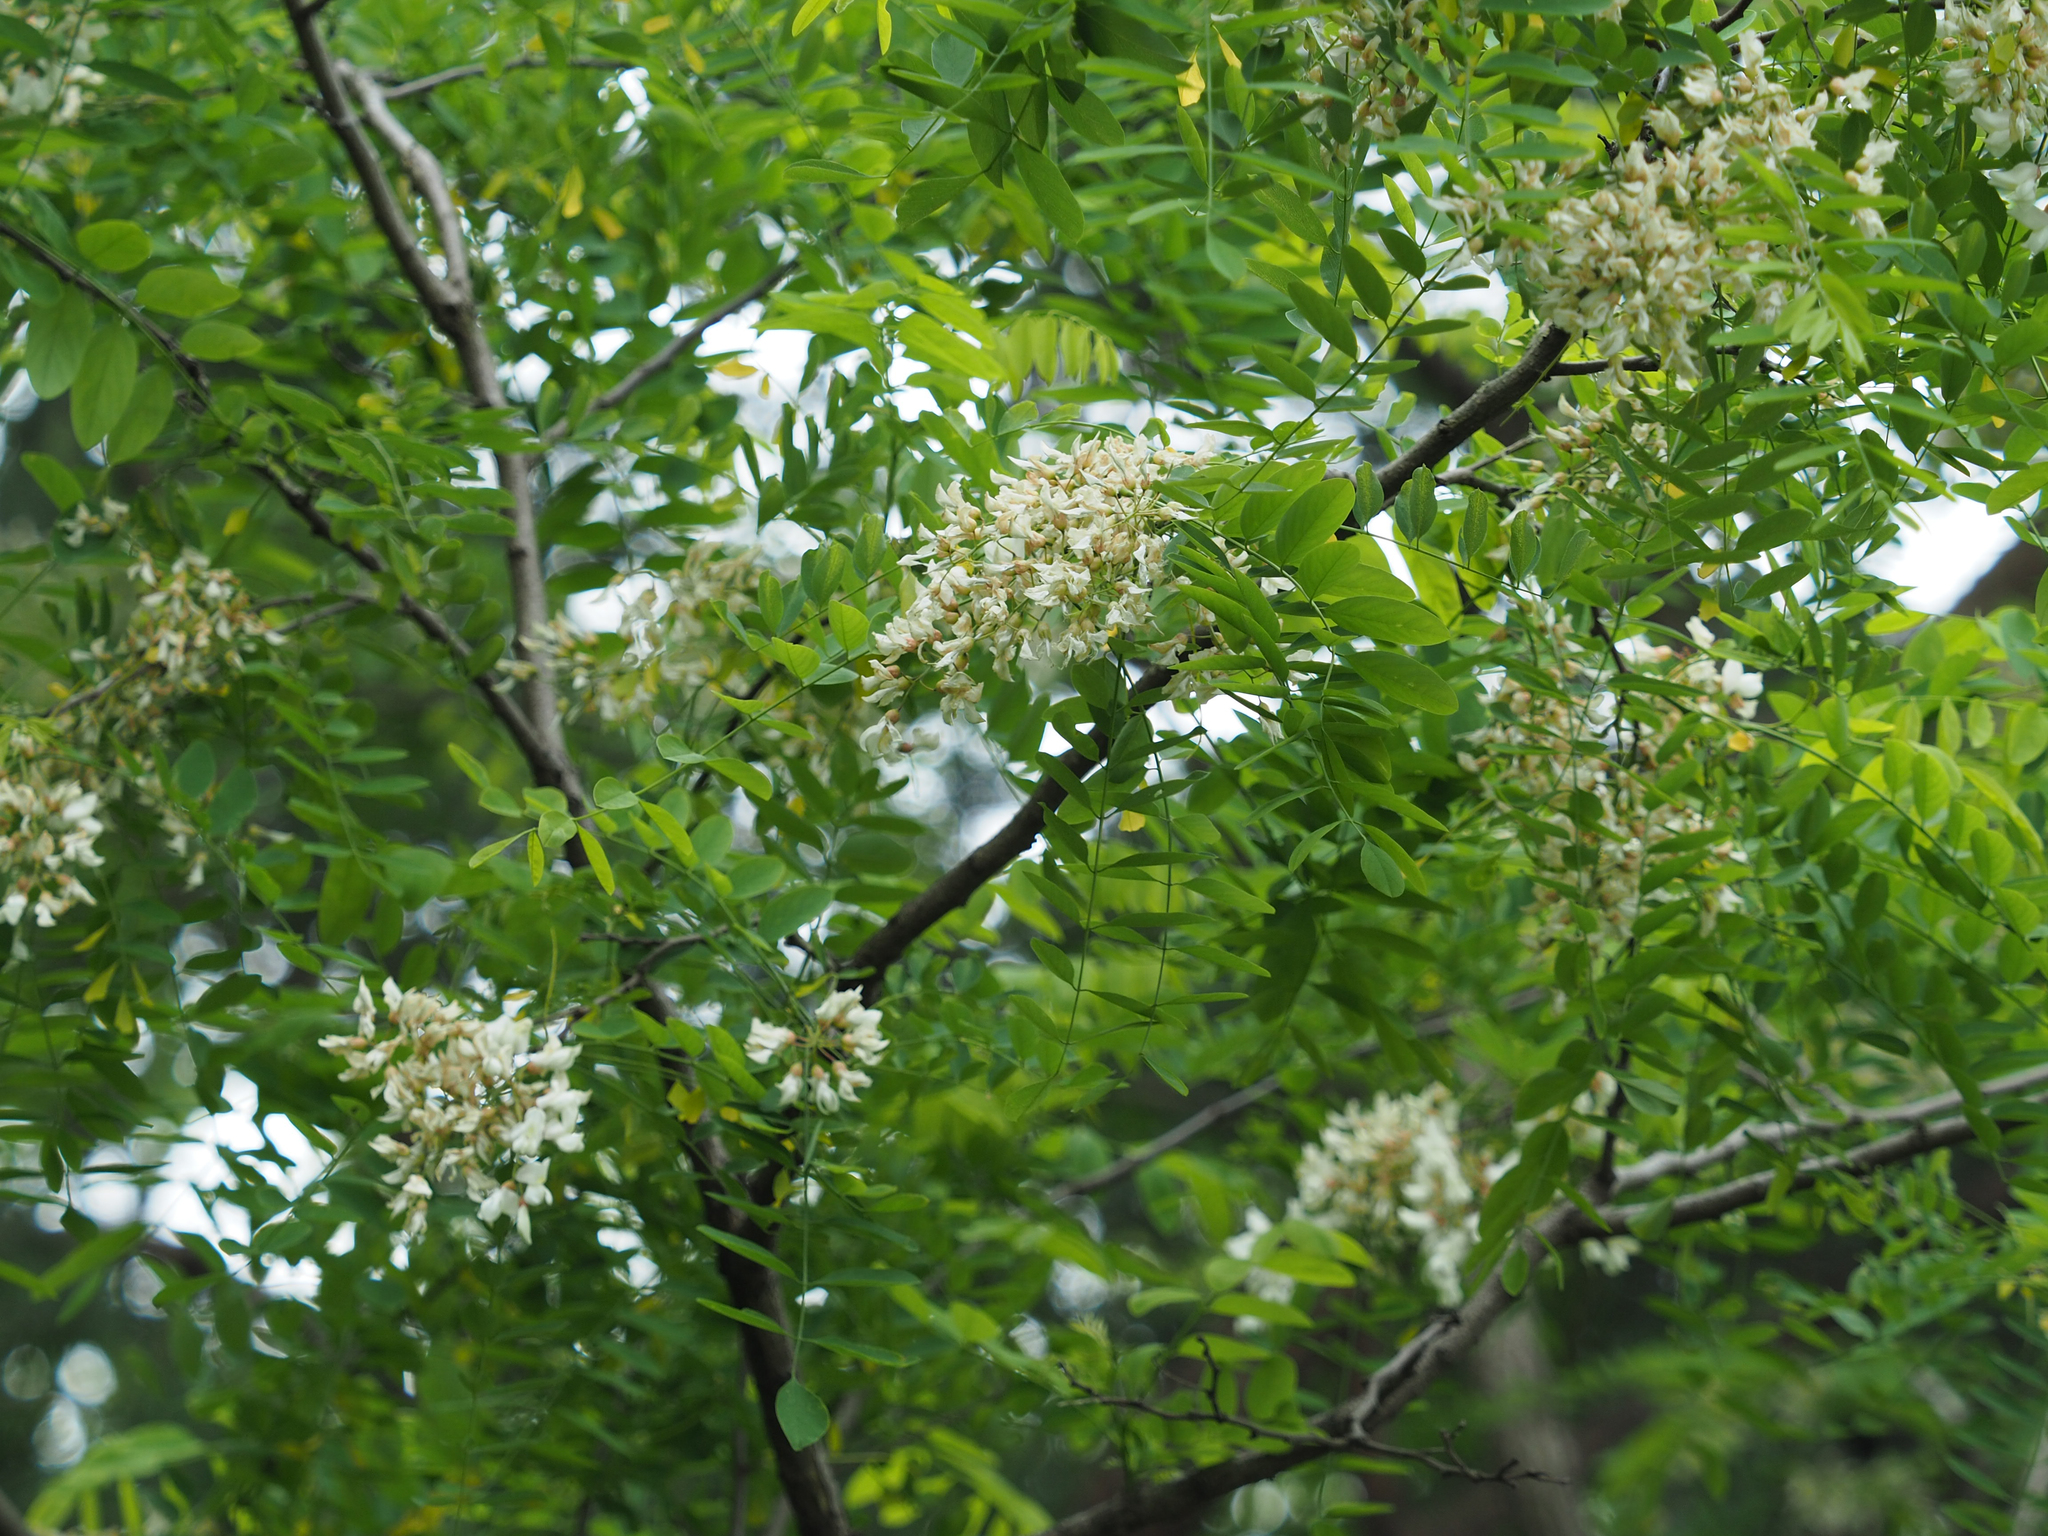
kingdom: Plantae
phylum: Tracheophyta
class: Magnoliopsida
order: Fabales
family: Fabaceae
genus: Robinia
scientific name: Robinia pseudoacacia
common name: Black locust
